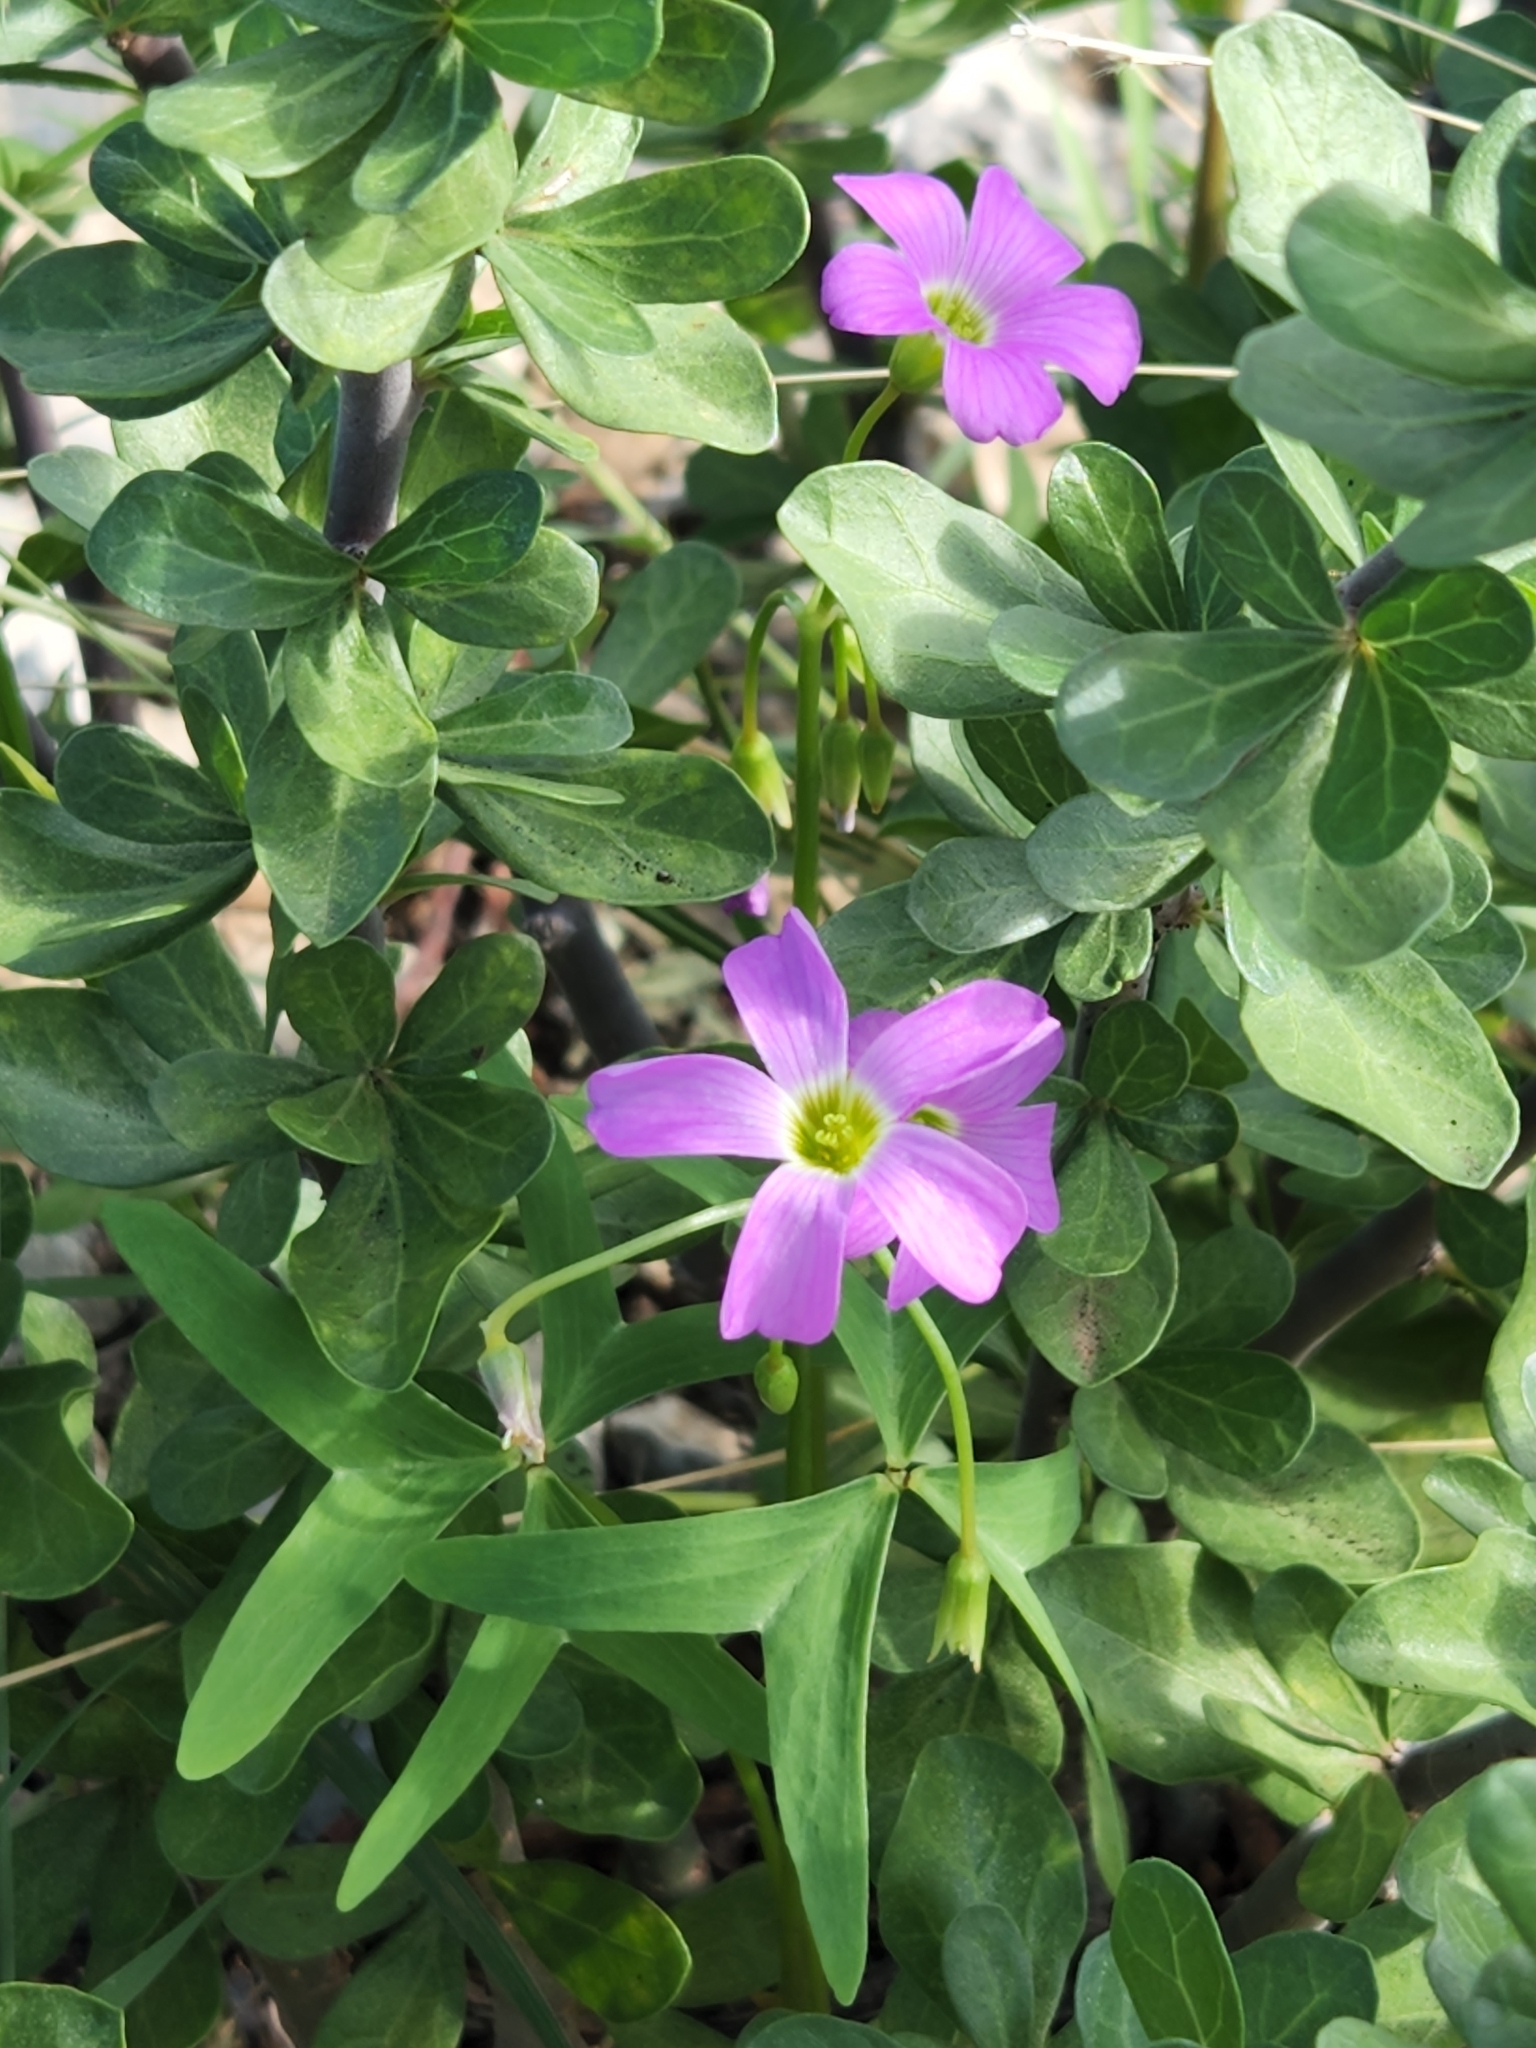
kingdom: Plantae
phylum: Tracheophyta
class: Magnoliopsida
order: Oxalidales
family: Oxalidaceae
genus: Oxalis
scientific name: Oxalis drummondii
